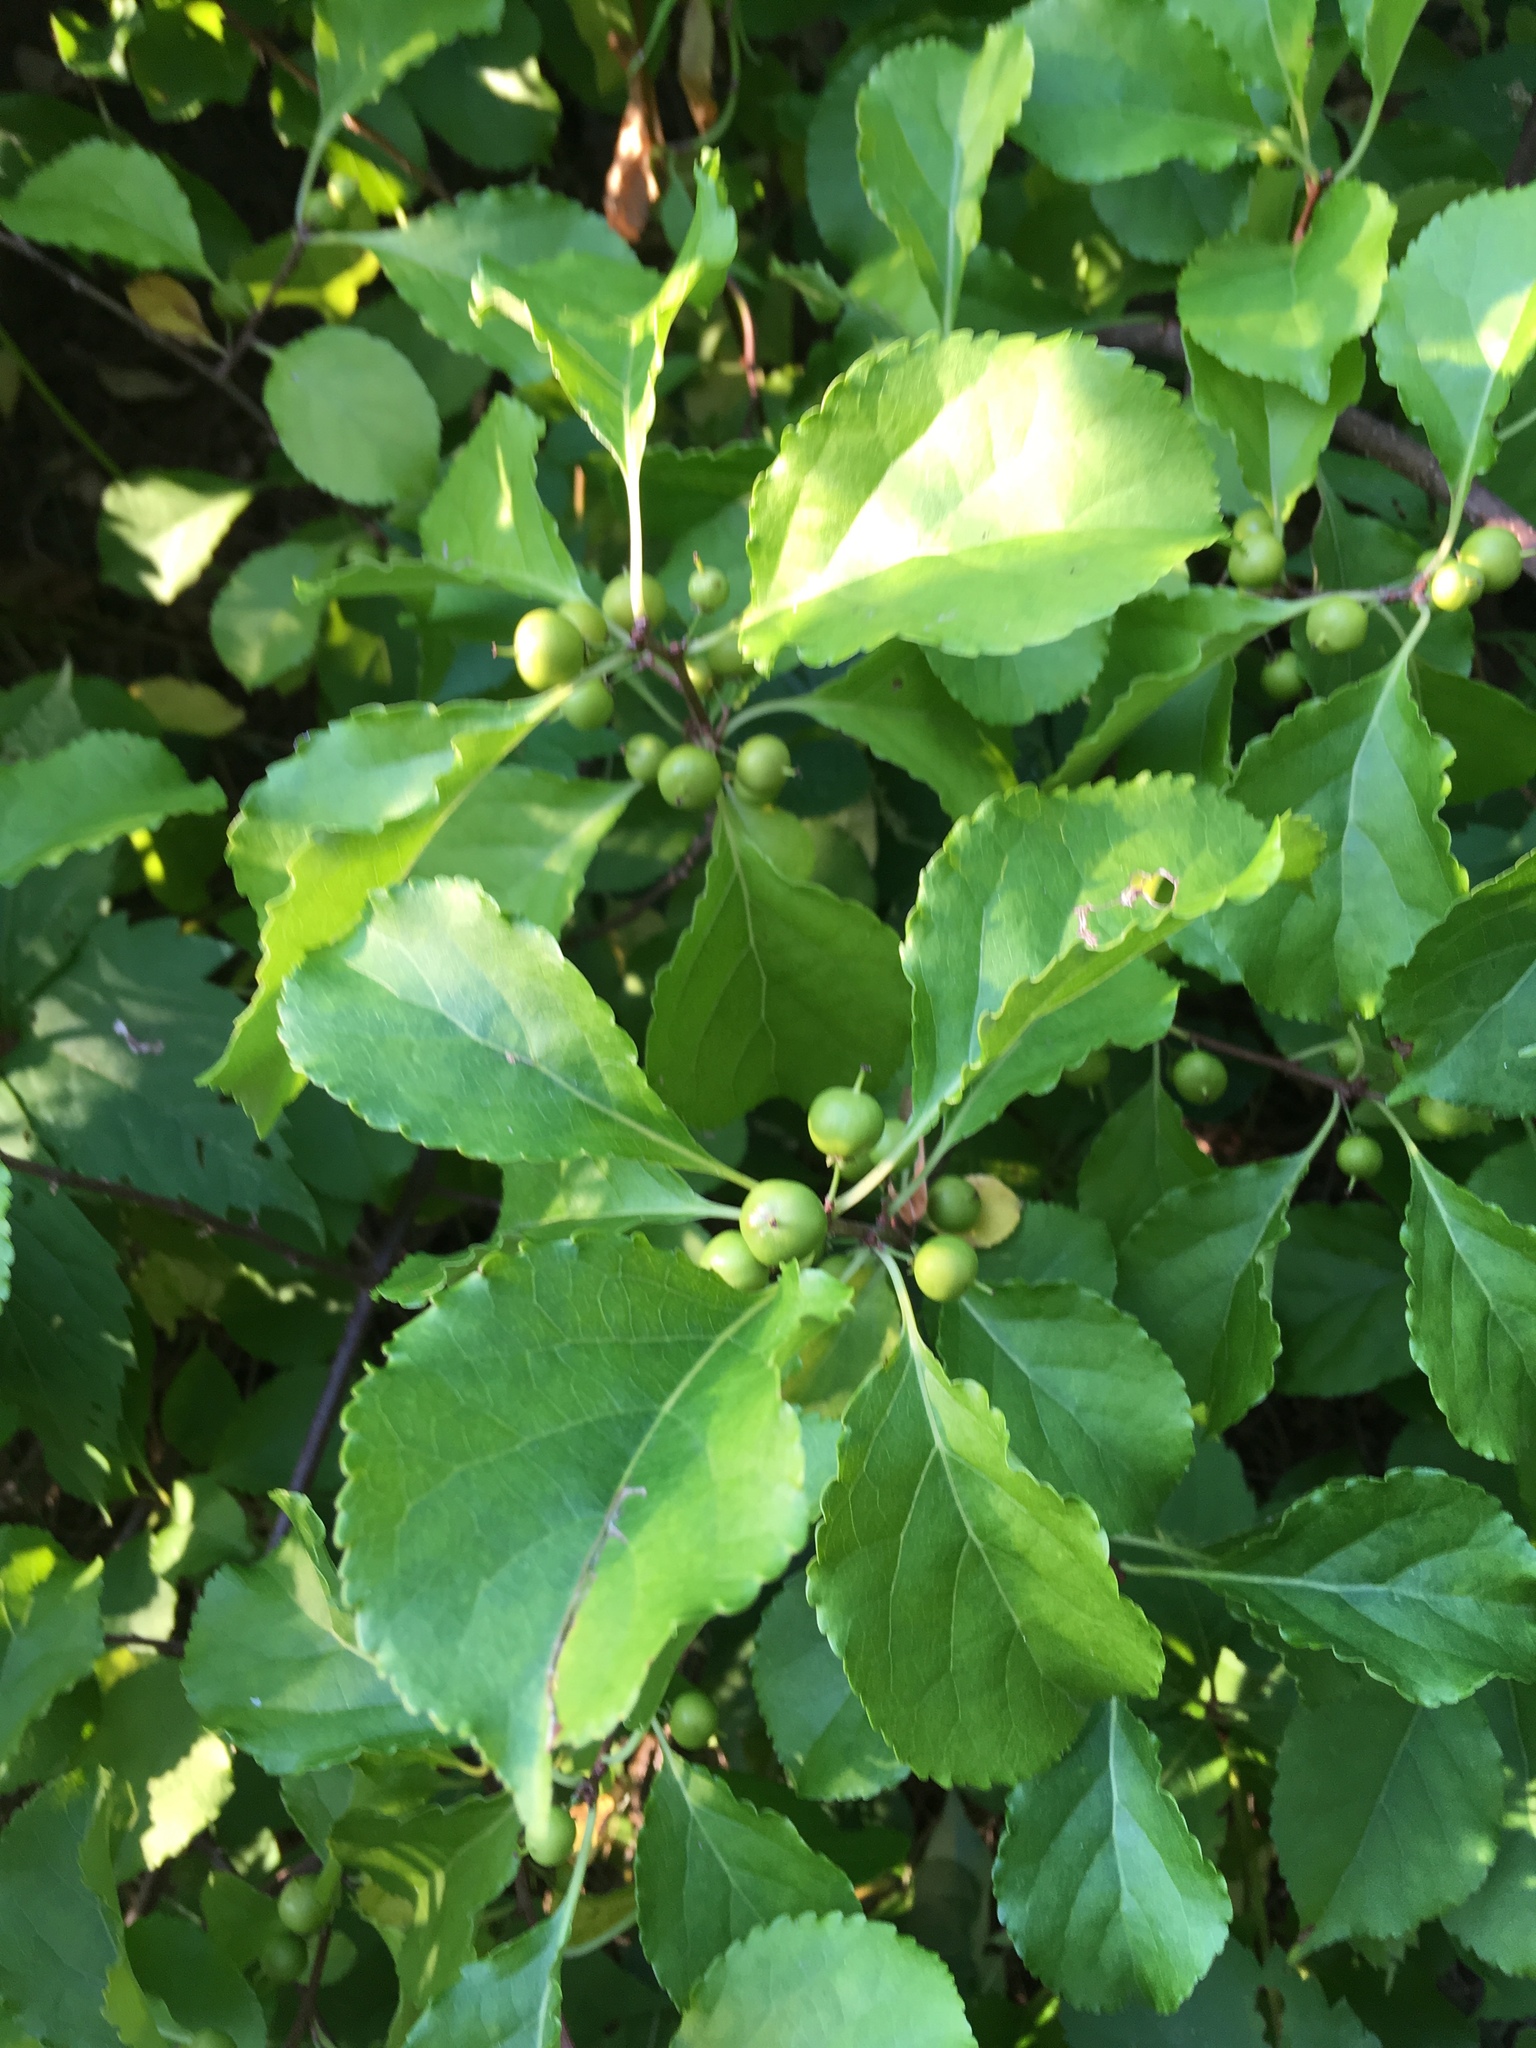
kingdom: Plantae
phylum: Tracheophyta
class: Magnoliopsida
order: Celastrales
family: Celastraceae
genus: Celastrus
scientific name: Celastrus orbiculatus
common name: Oriental bittersweet
